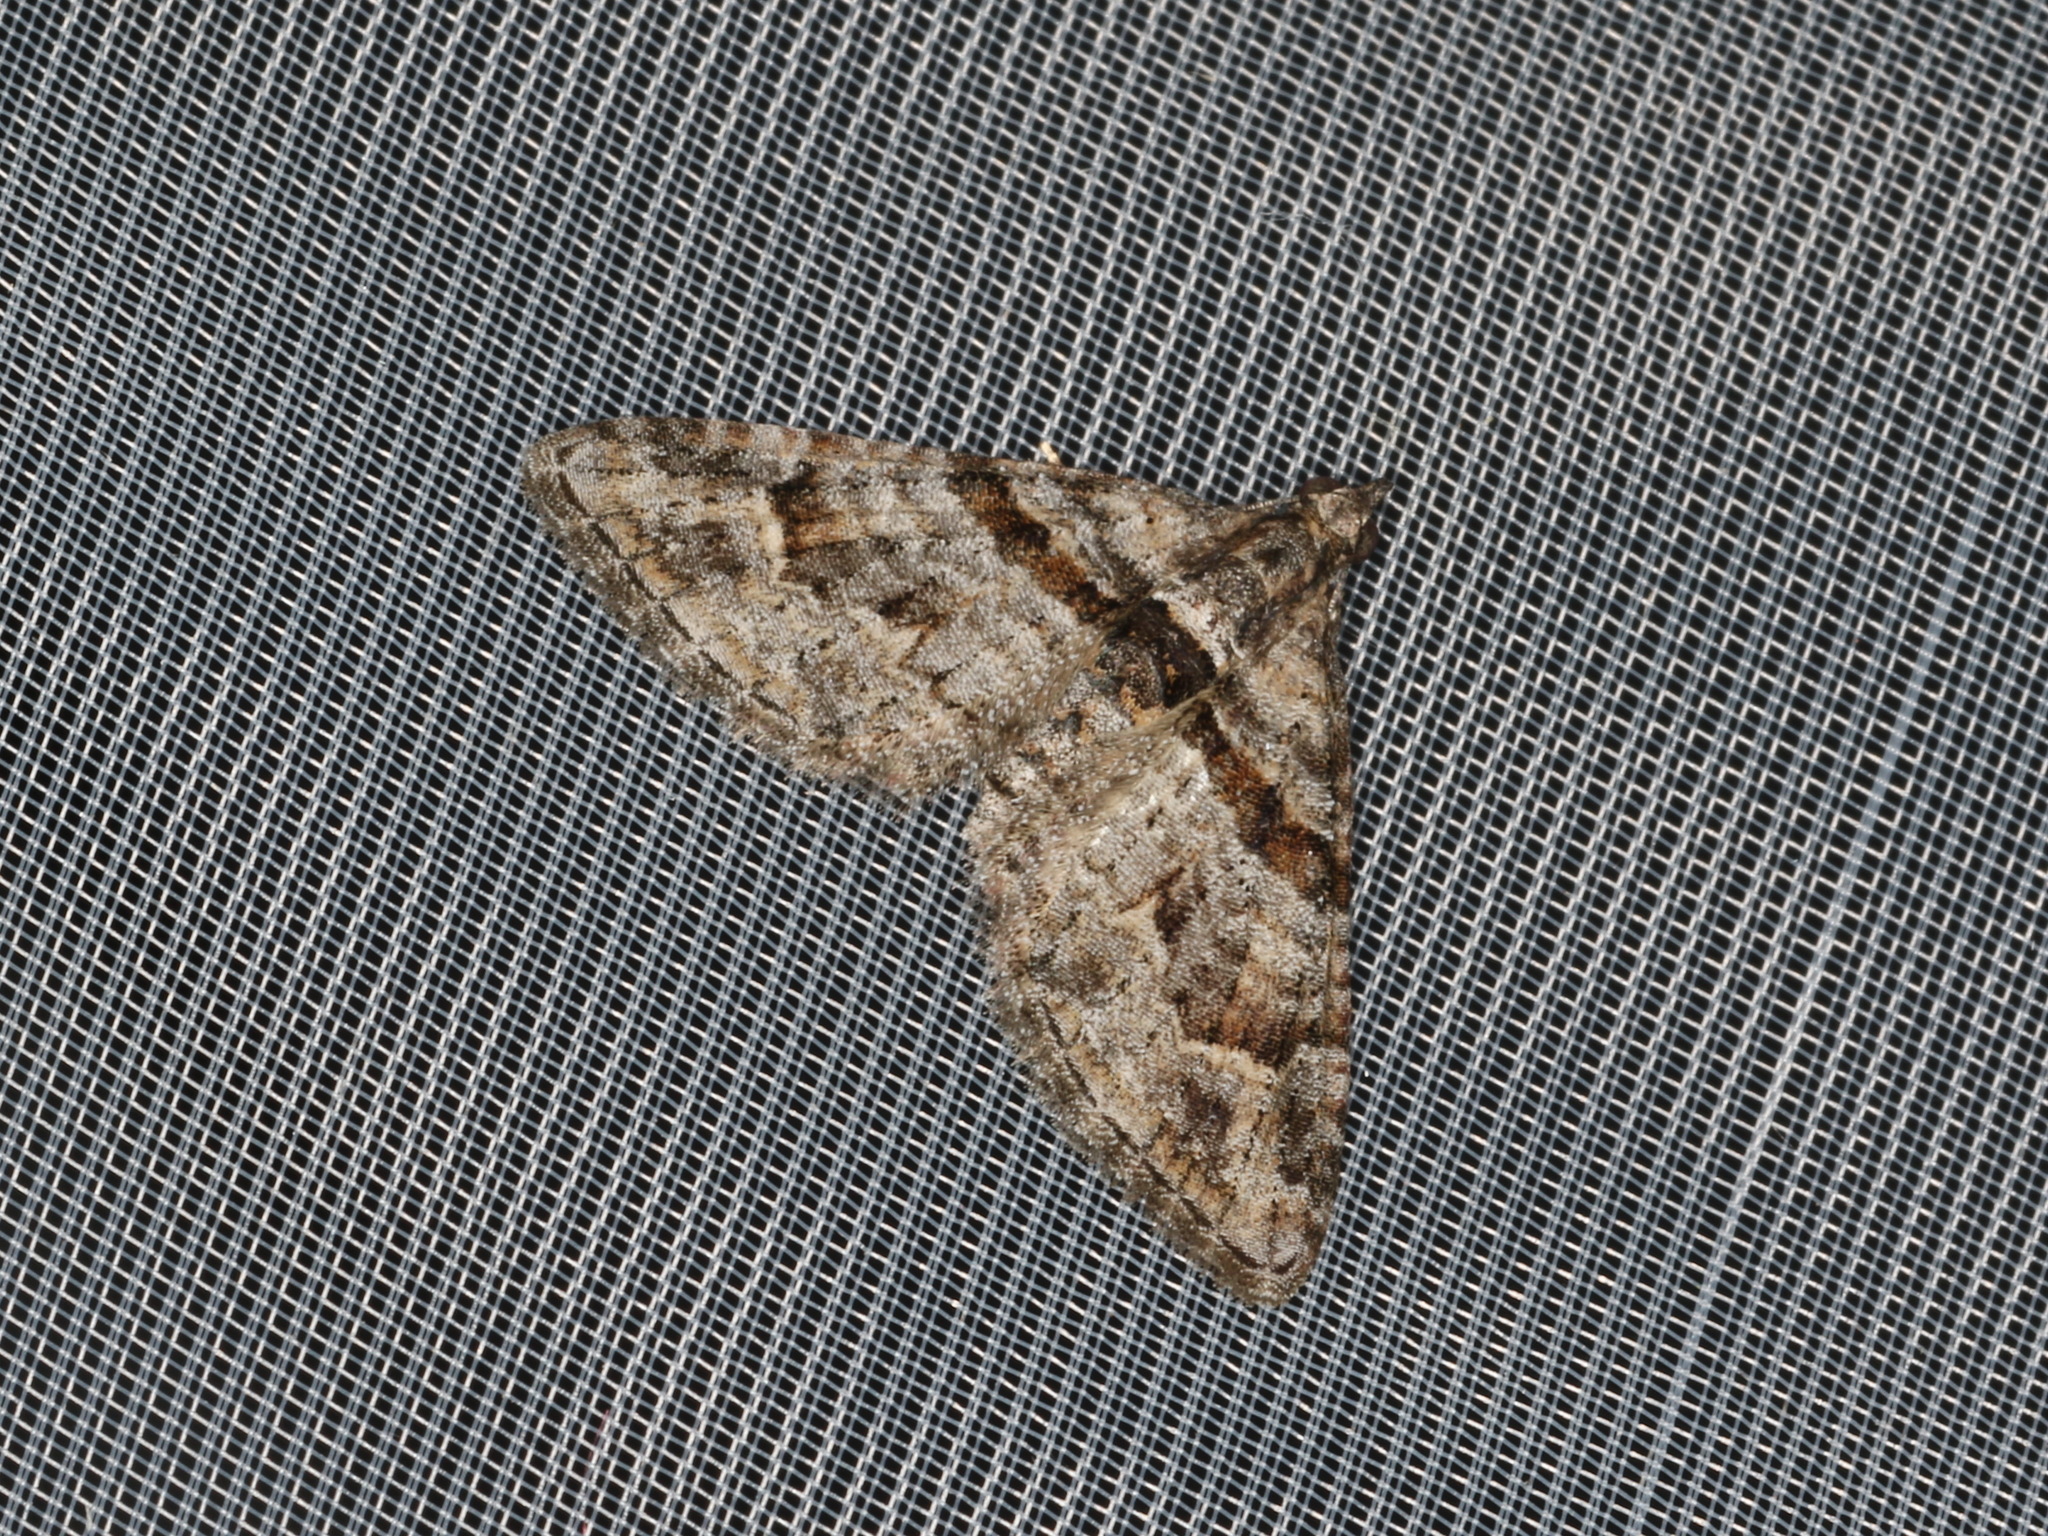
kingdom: Animalia
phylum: Arthropoda
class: Insecta
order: Lepidoptera
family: Geometridae
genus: Phrissogonus
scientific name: Phrissogonus laticostata
